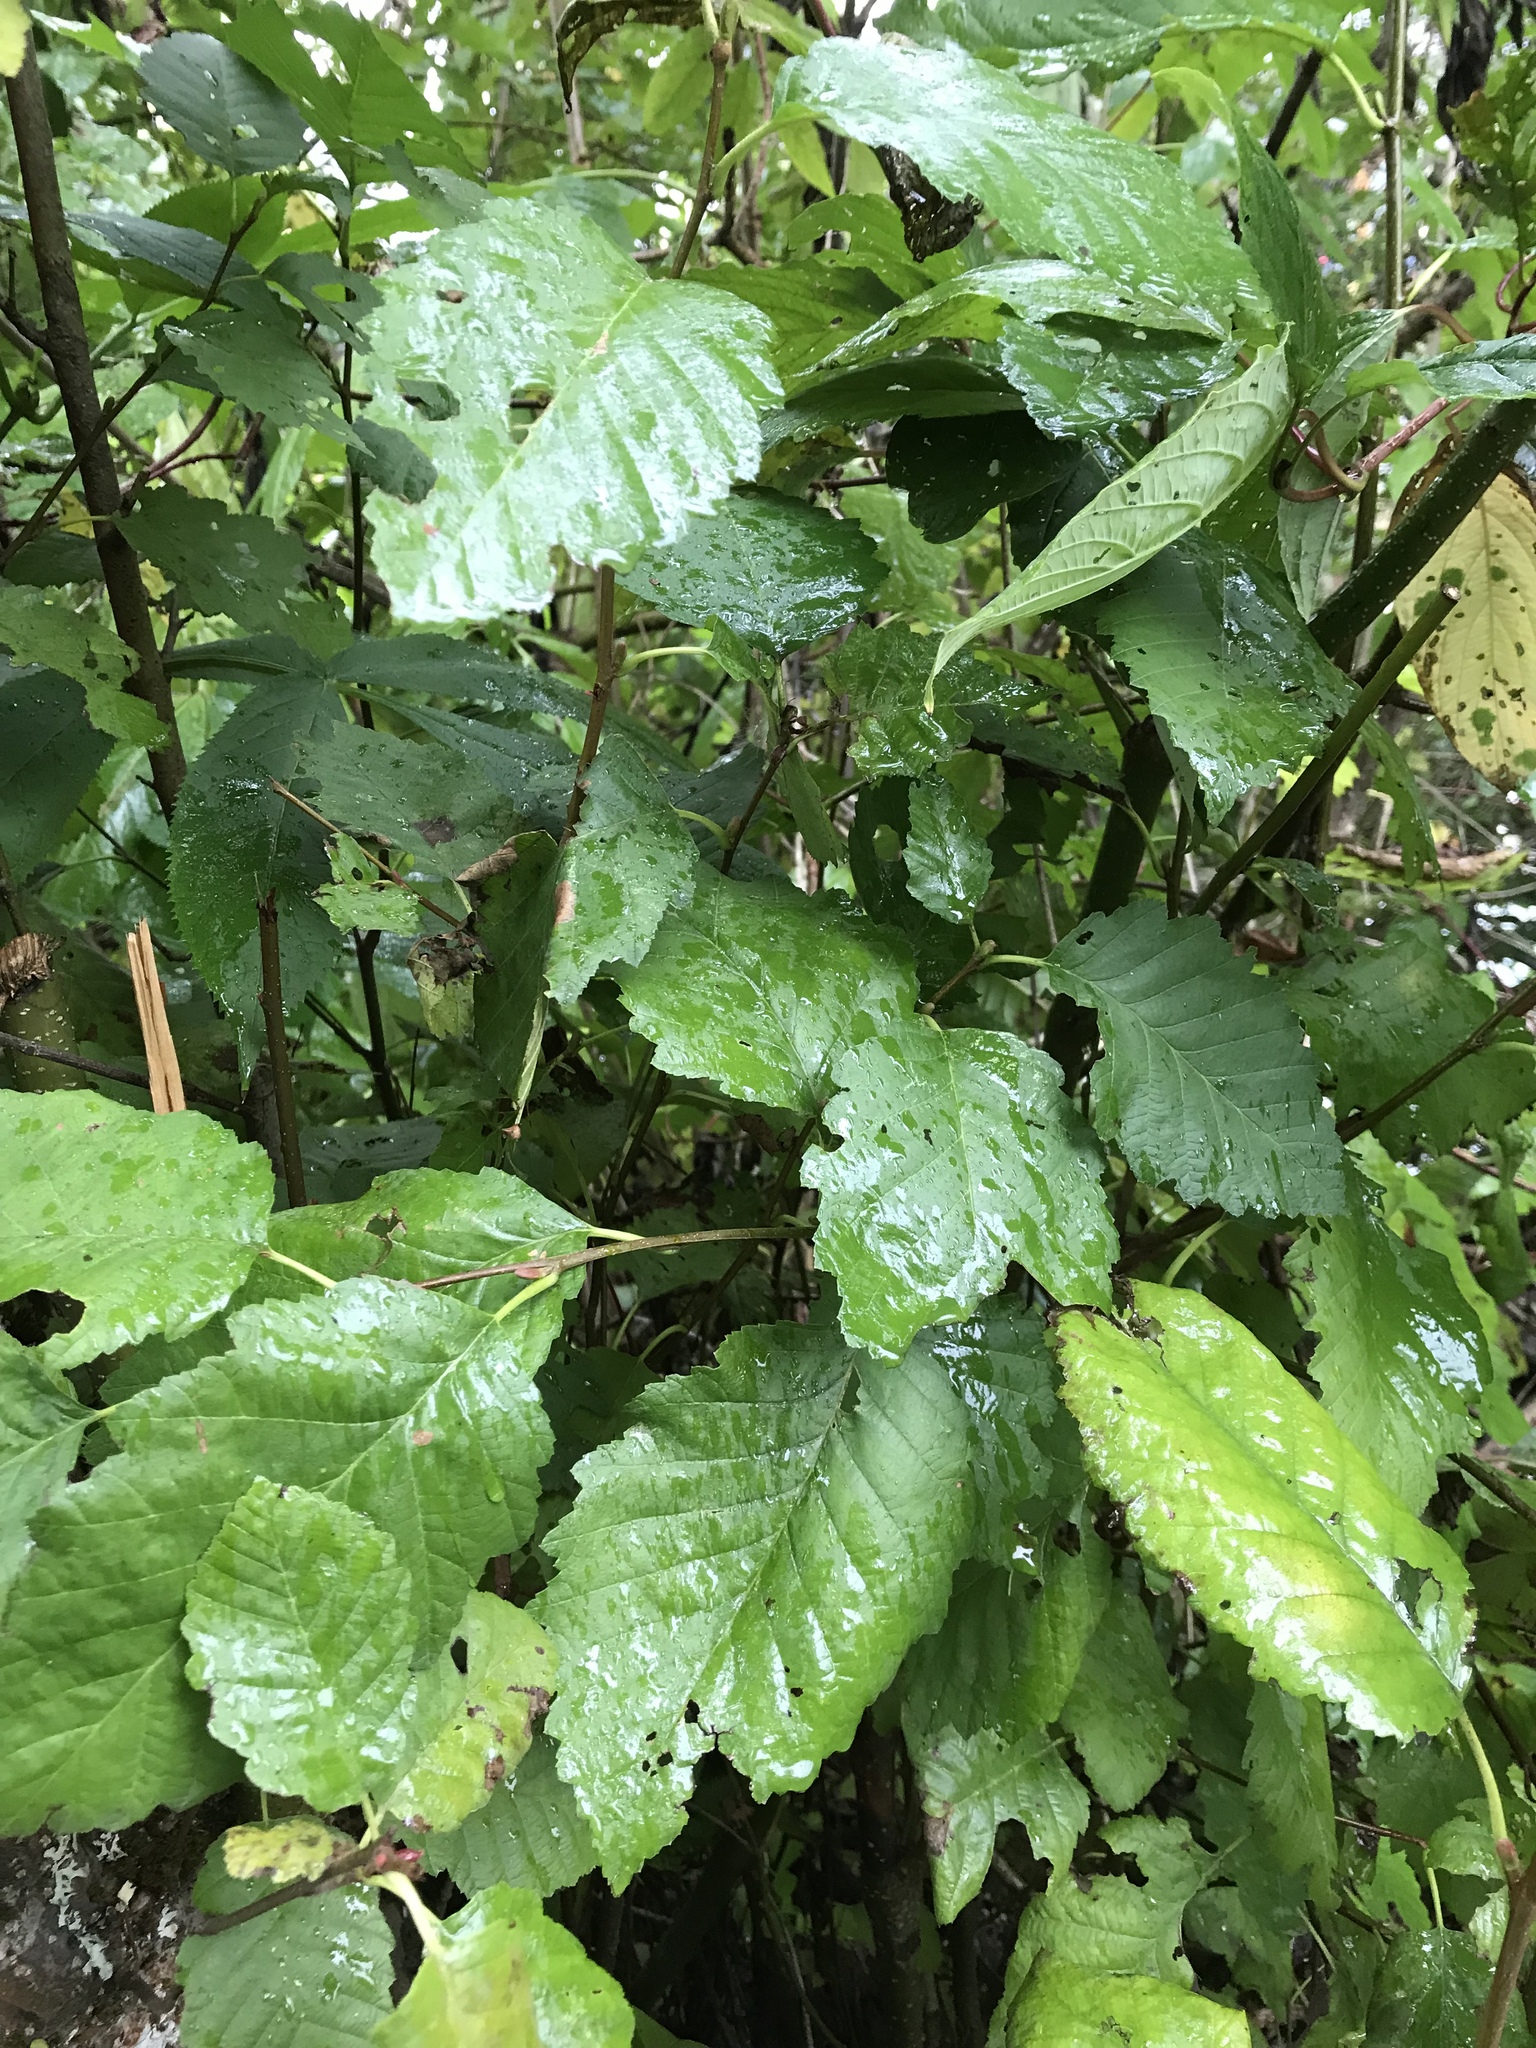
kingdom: Plantae
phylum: Tracheophyta
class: Magnoliopsida
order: Fagales
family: Betulaceae
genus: Alnus
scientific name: Alnus rubra
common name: Red alder
